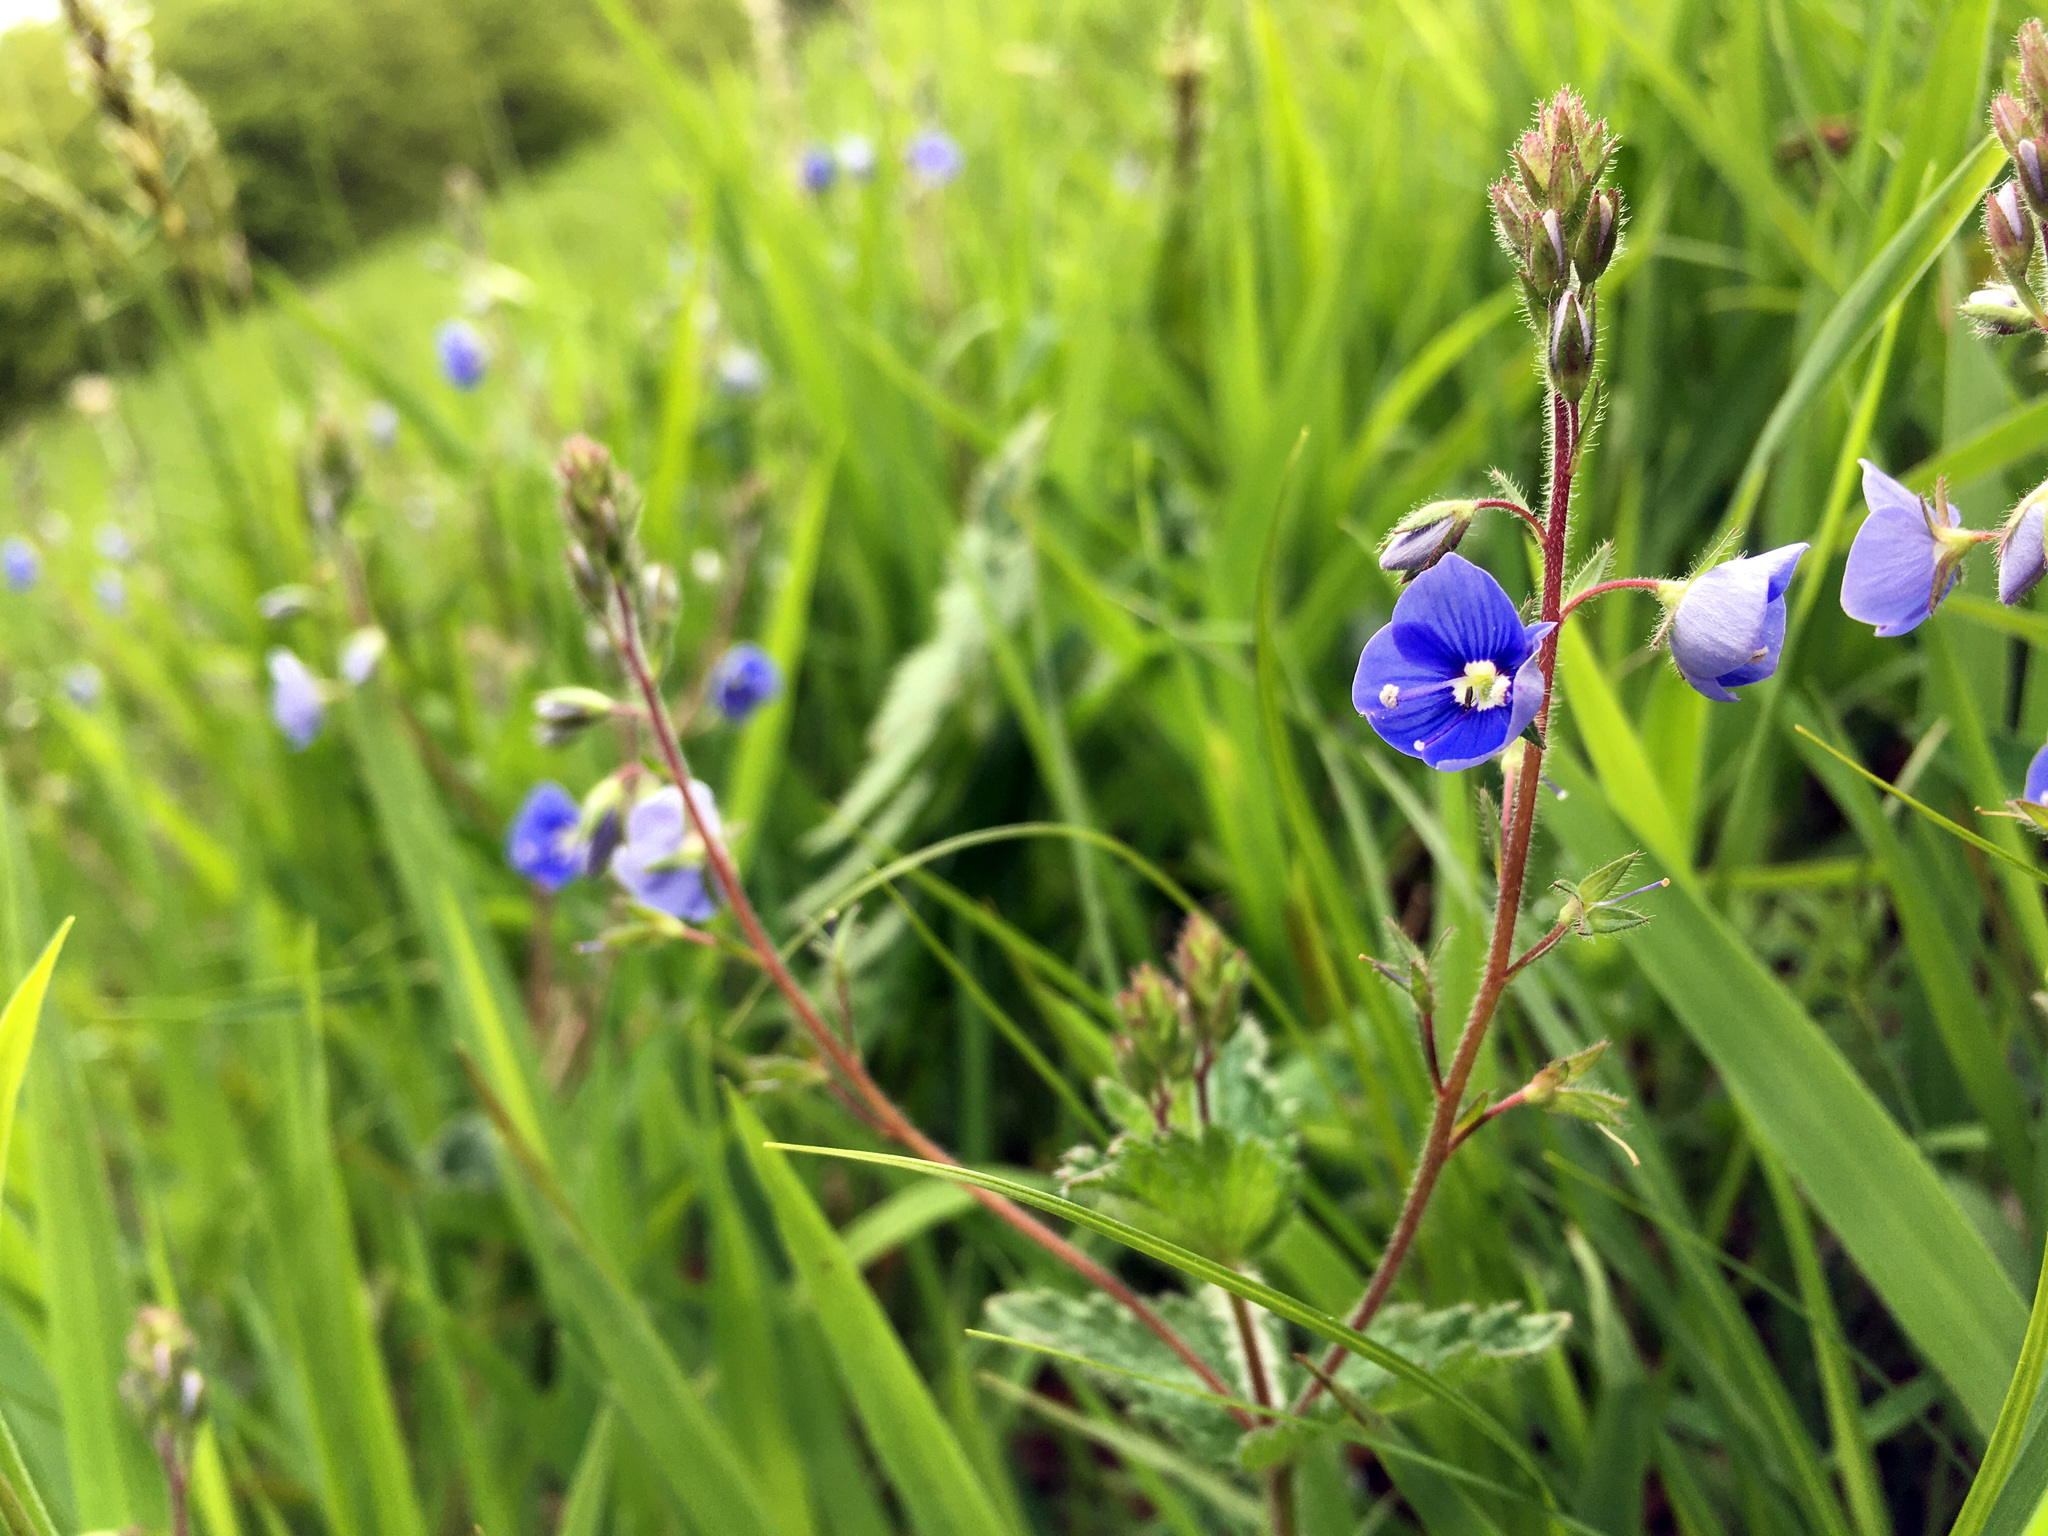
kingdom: Plantae
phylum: Tracheophyta
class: Magnoliopsida
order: Lamiales
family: Plantaginaceae
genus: Veronica
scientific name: Veronica chamaedrys
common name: Germander speedwell
